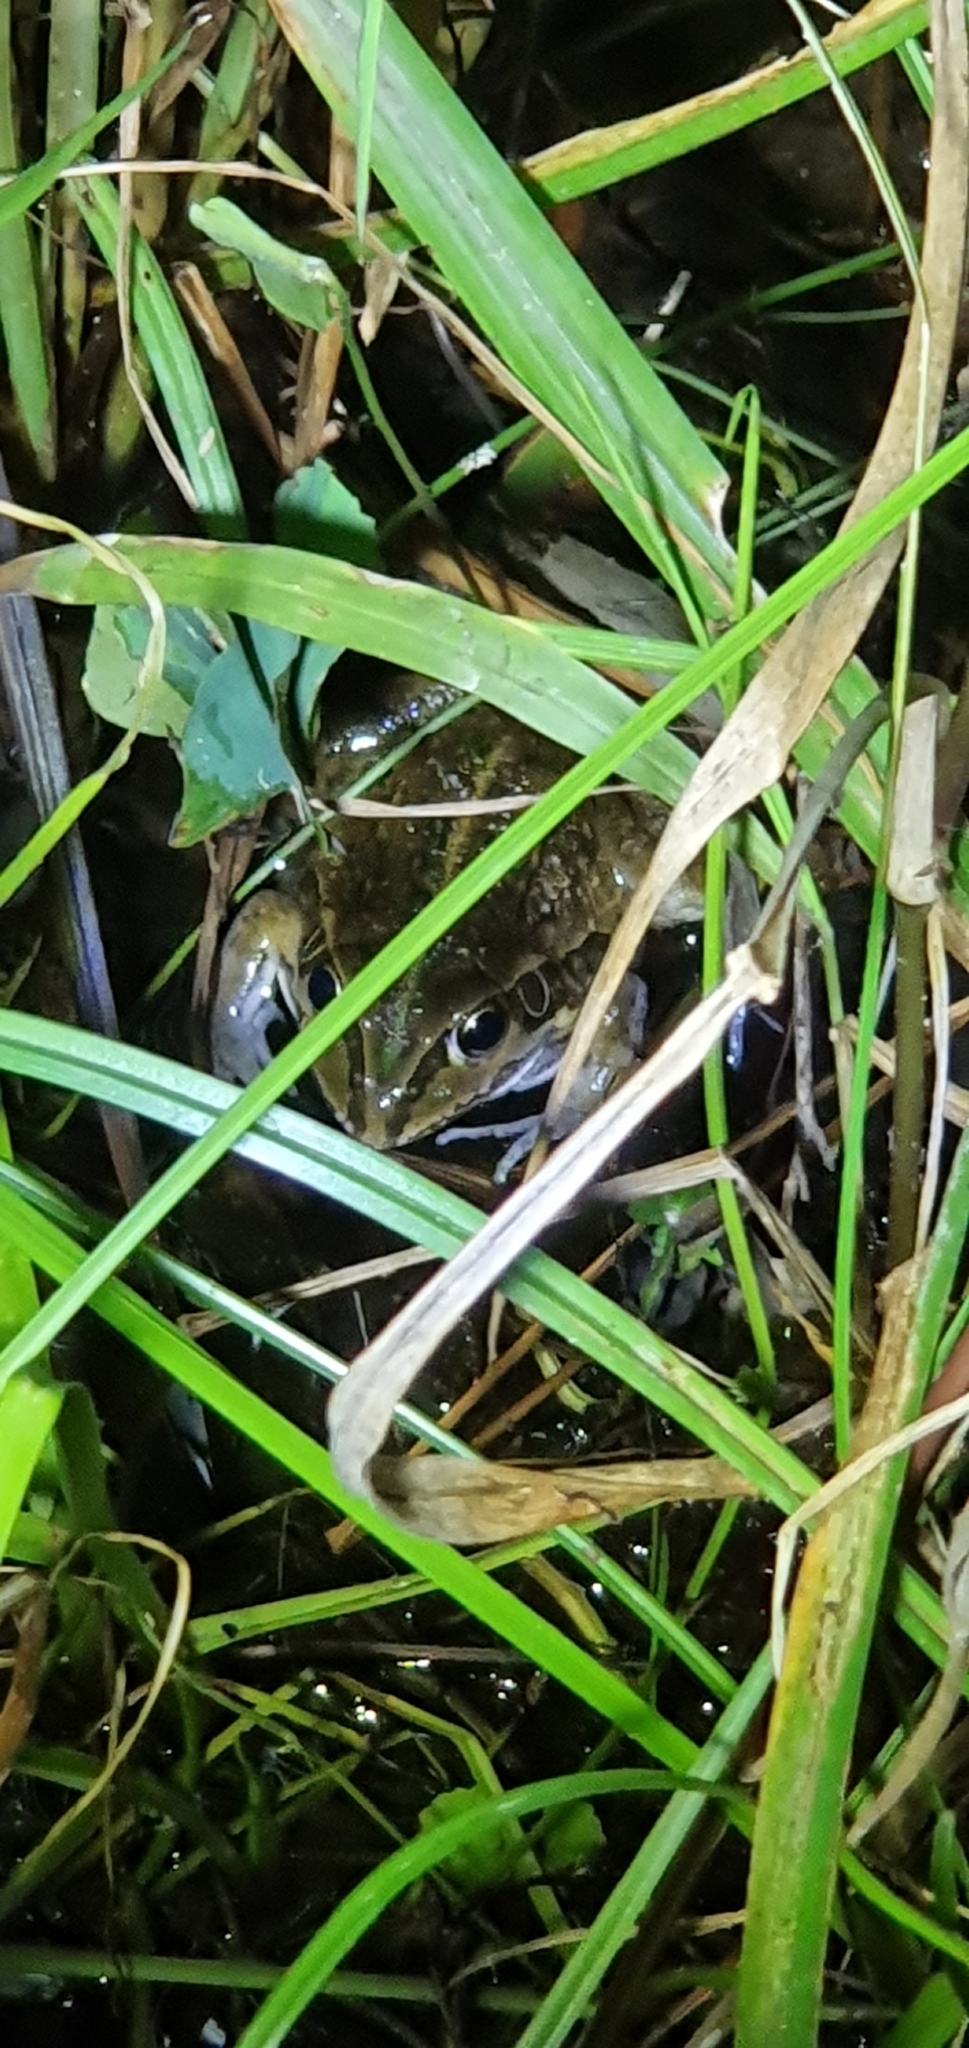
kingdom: Animalia
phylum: Chordata
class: Amphibia
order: Anura
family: Pelodryadidae
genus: Ranoidea
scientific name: Ranoidea alboguttata
